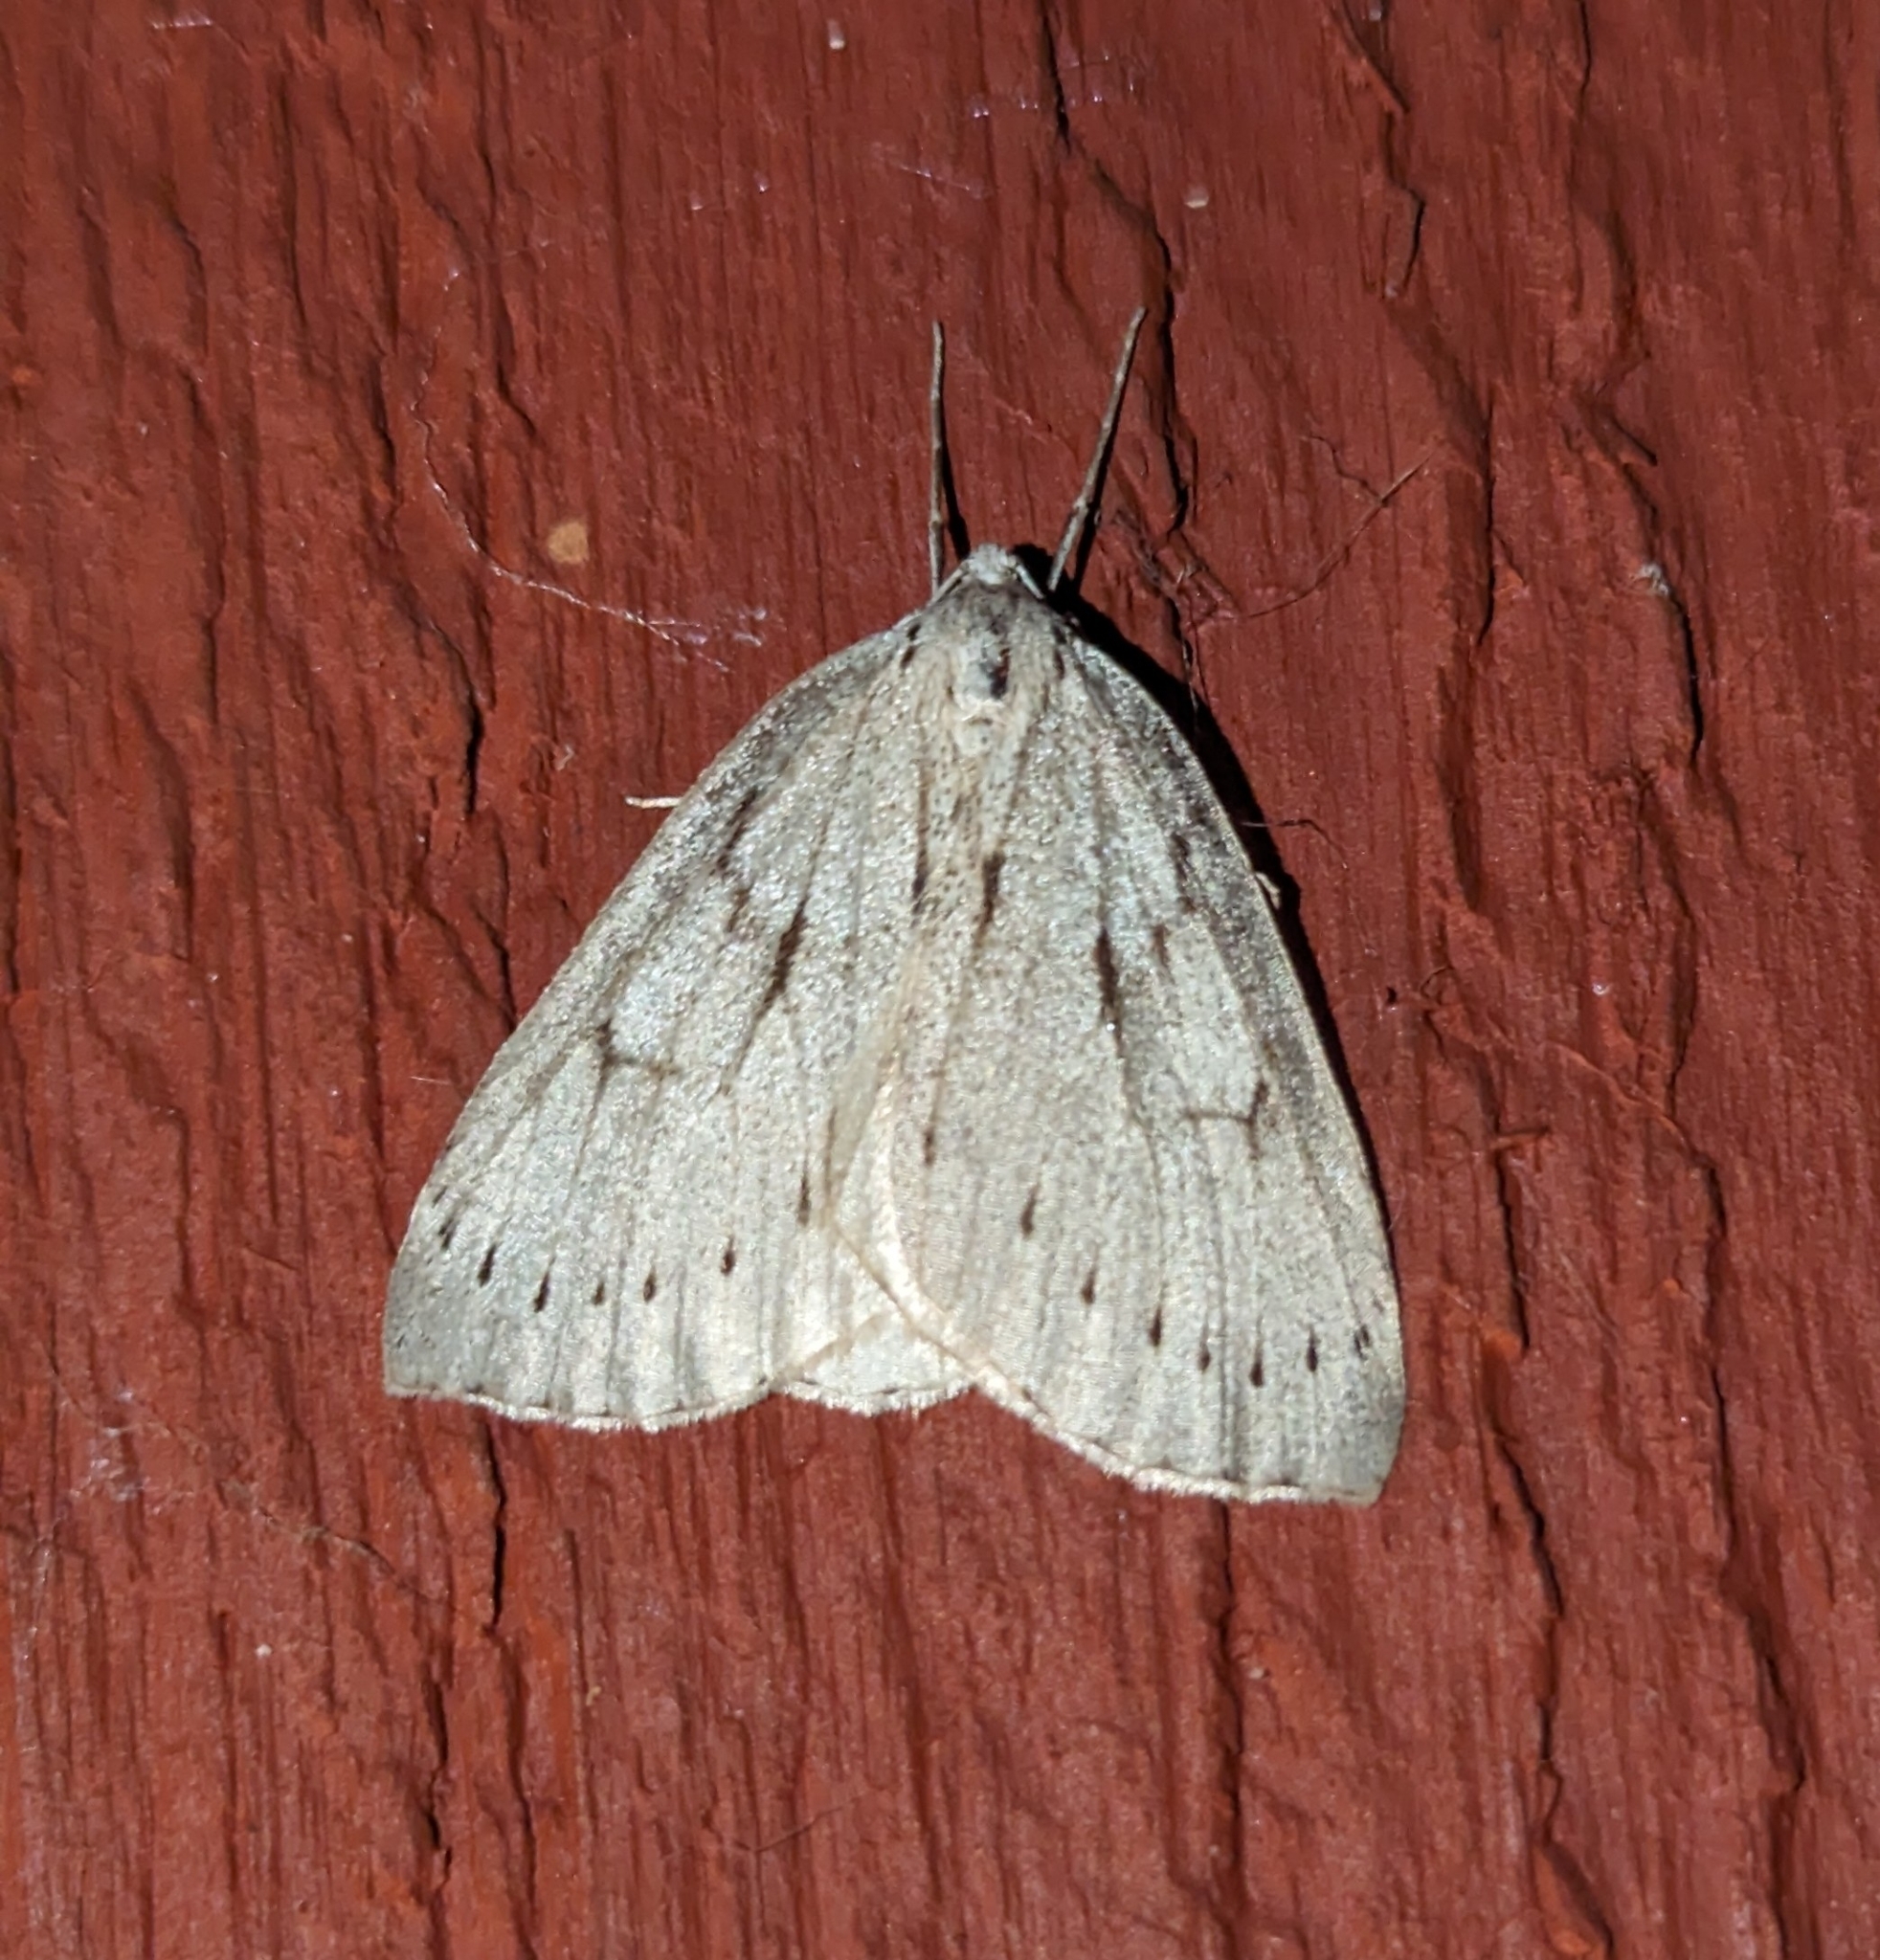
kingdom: Animalia
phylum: Arthropoda
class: Insecta
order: Lepidoptera
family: Geometridae
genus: Philedia
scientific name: Philedia punctomacularia
